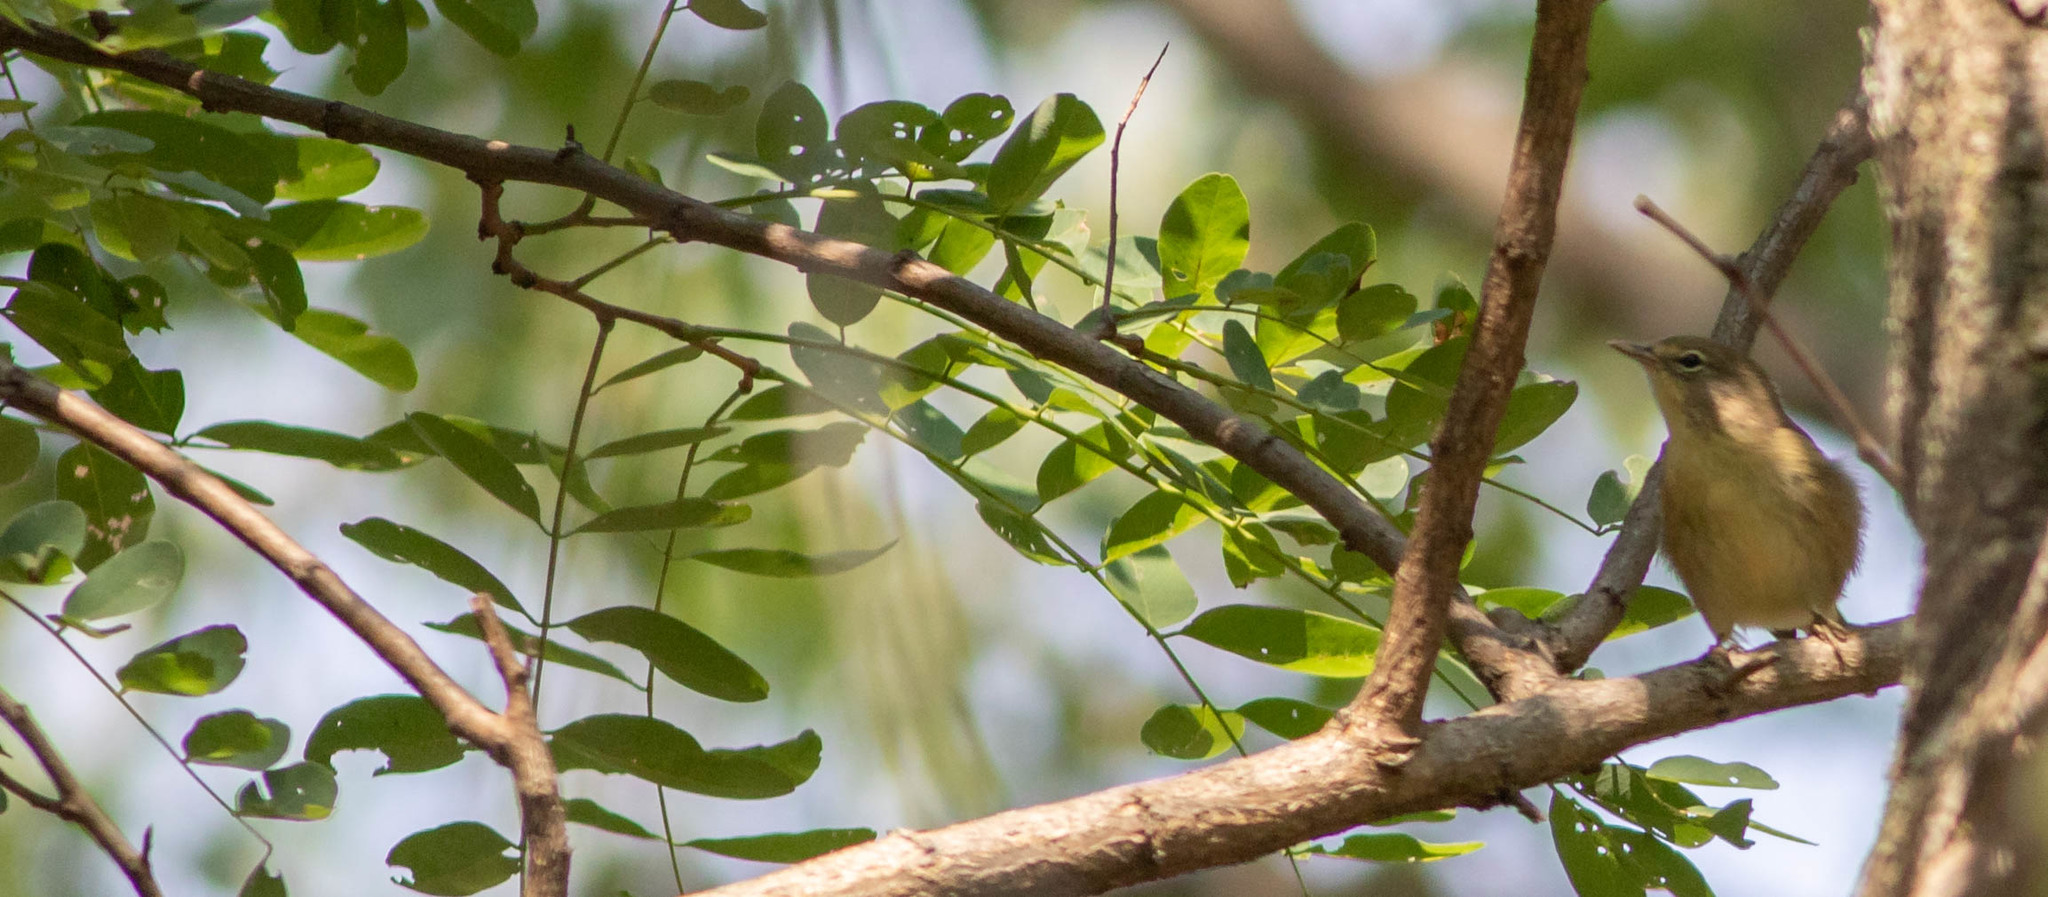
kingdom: Animalia
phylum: Chordata
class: Aves
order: Passeriformes
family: Parulidae
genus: Setophaga
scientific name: Setophaga pinus
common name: Pine warbler
